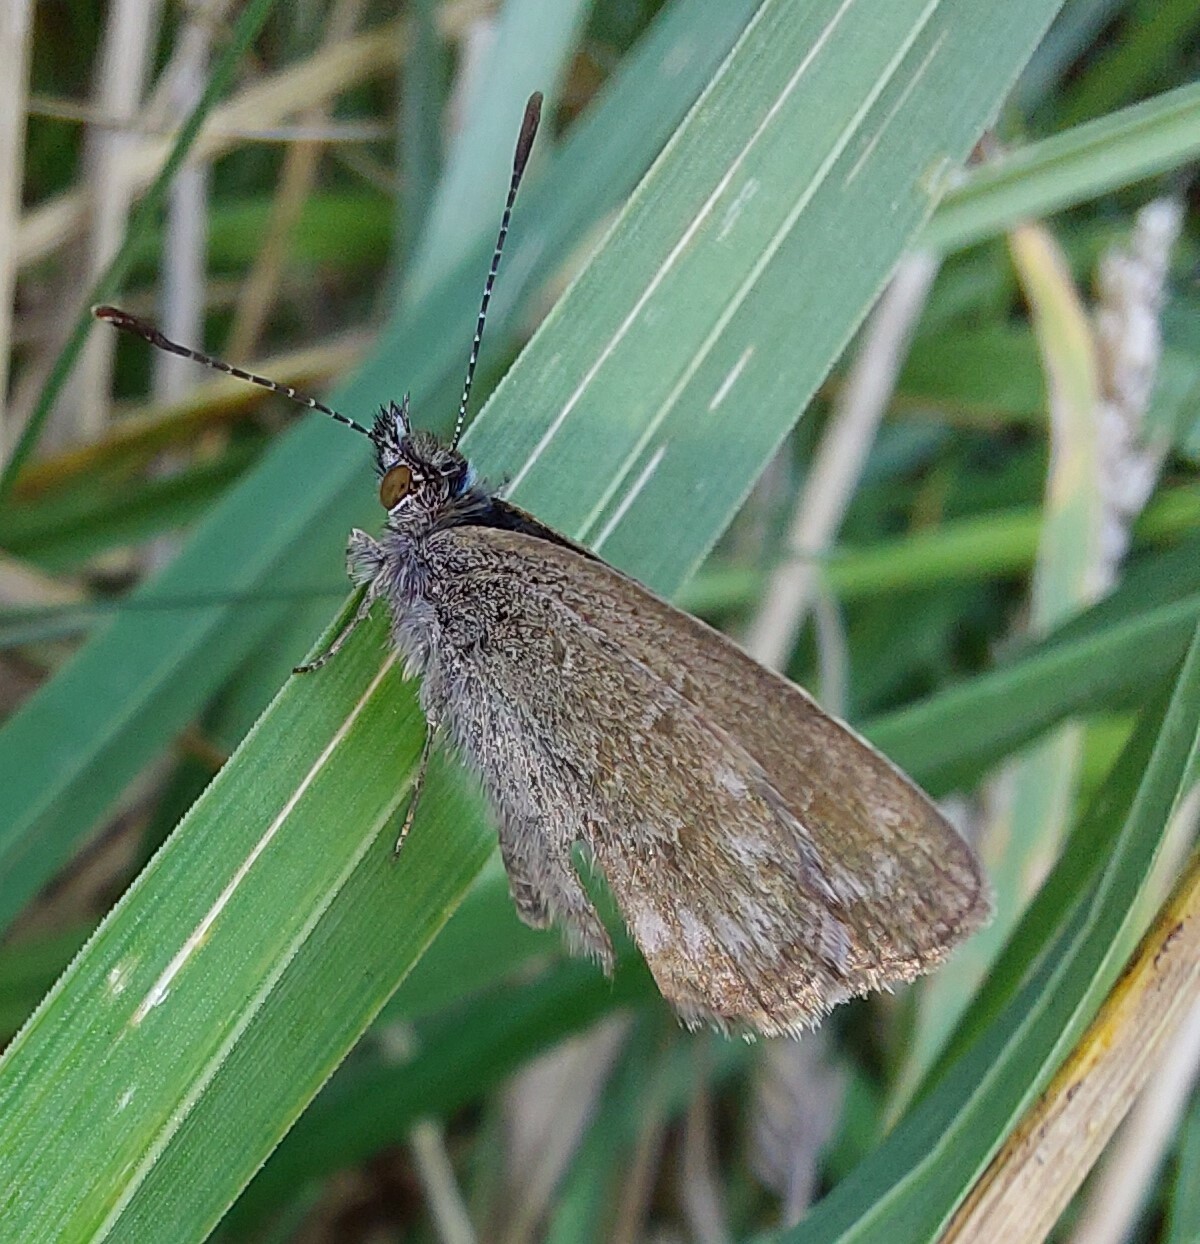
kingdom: Animalia
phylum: Arthropoda
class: Insecta
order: Lepidoptera
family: Lycaenidae
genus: Zizina
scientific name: Zizina labradus
